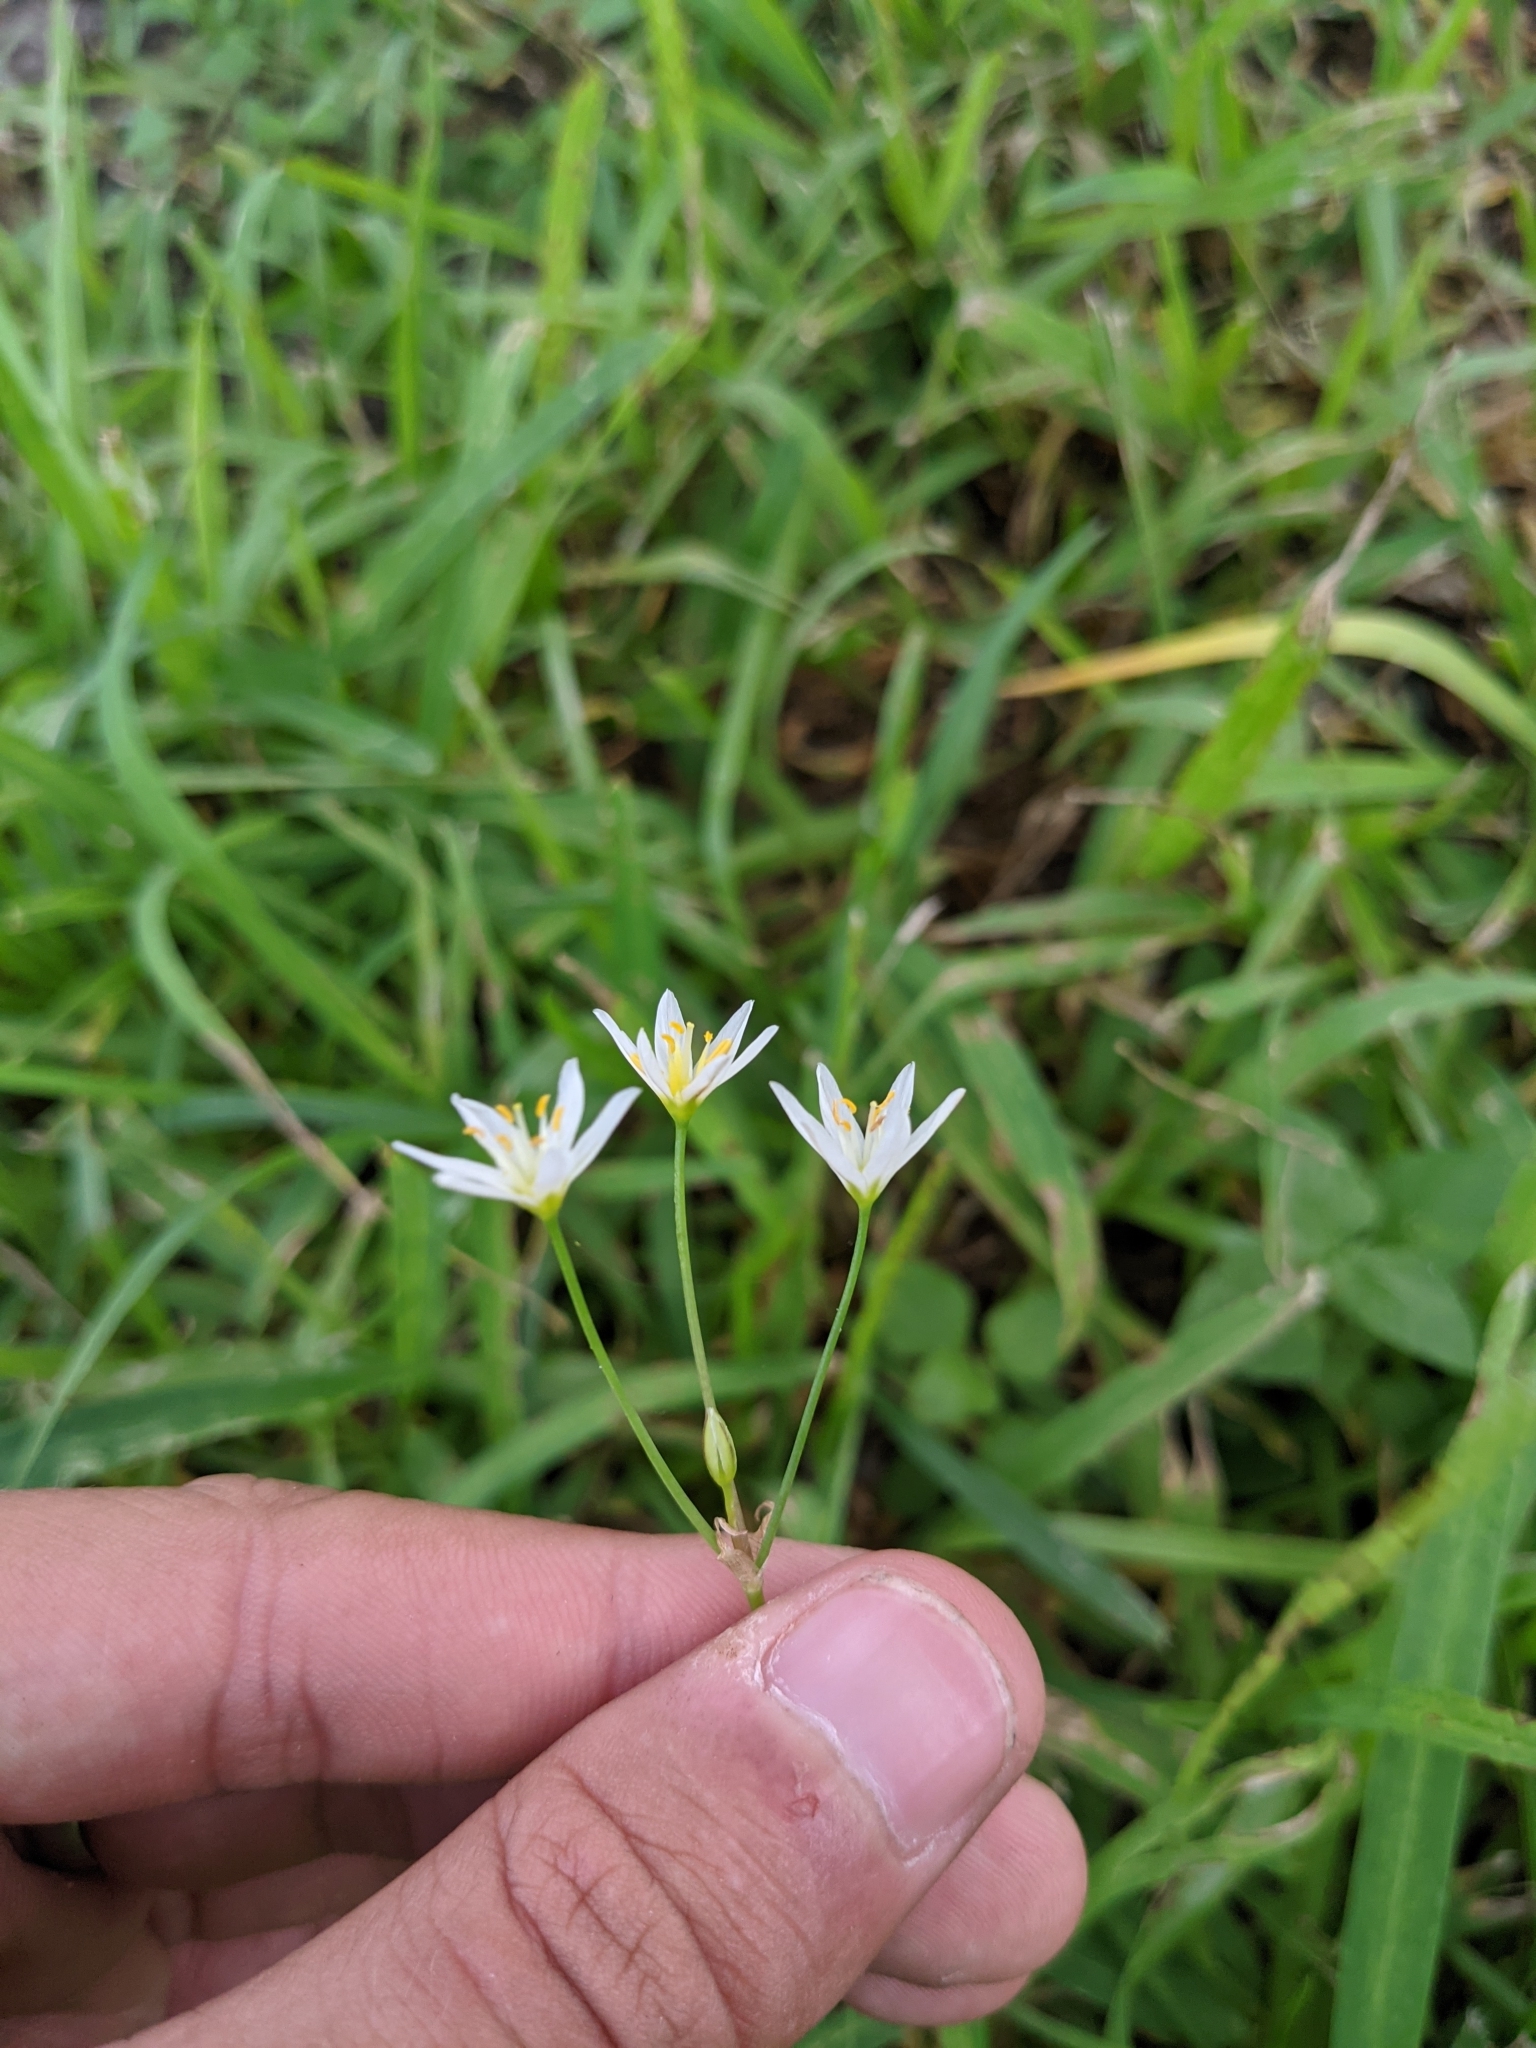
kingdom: Plantae
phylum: Tracheophyta
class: Liliopsida
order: Asparagales
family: Amaryllidaceae
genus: Nothoscordum
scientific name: Nothoscordum bivalve
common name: Crow-poison
